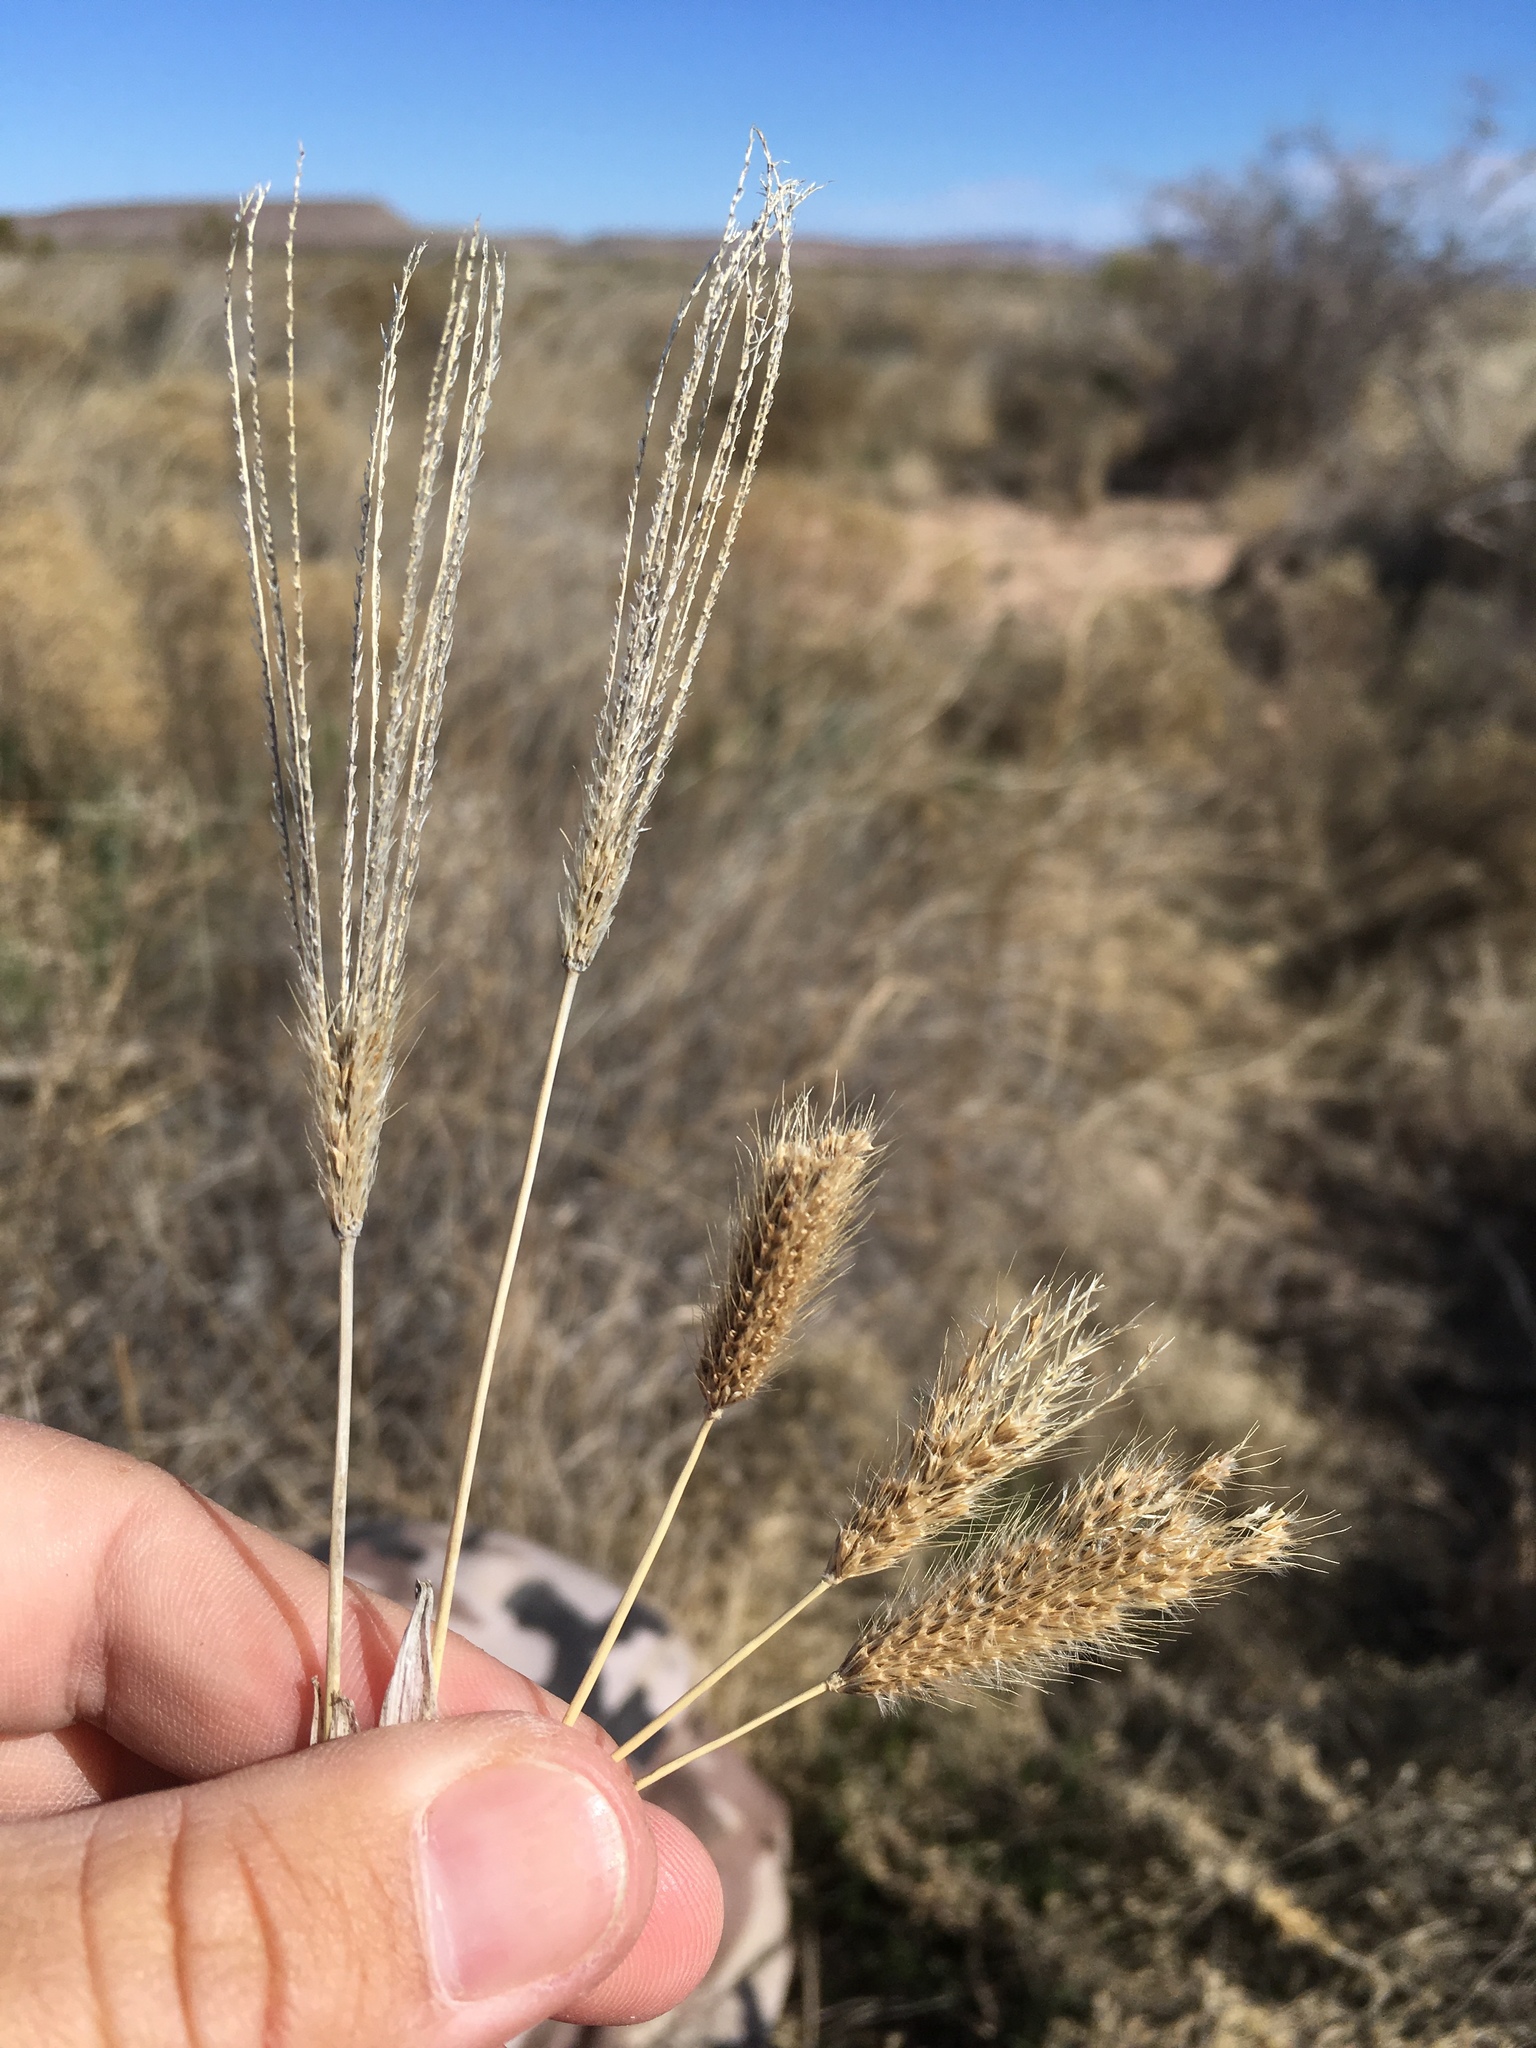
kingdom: Plantae
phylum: Tracheophyta
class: Liliopsida
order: Poales
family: Poaceae
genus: Chloris
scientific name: Chloris virgata
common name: Feathery rhodes-grass
